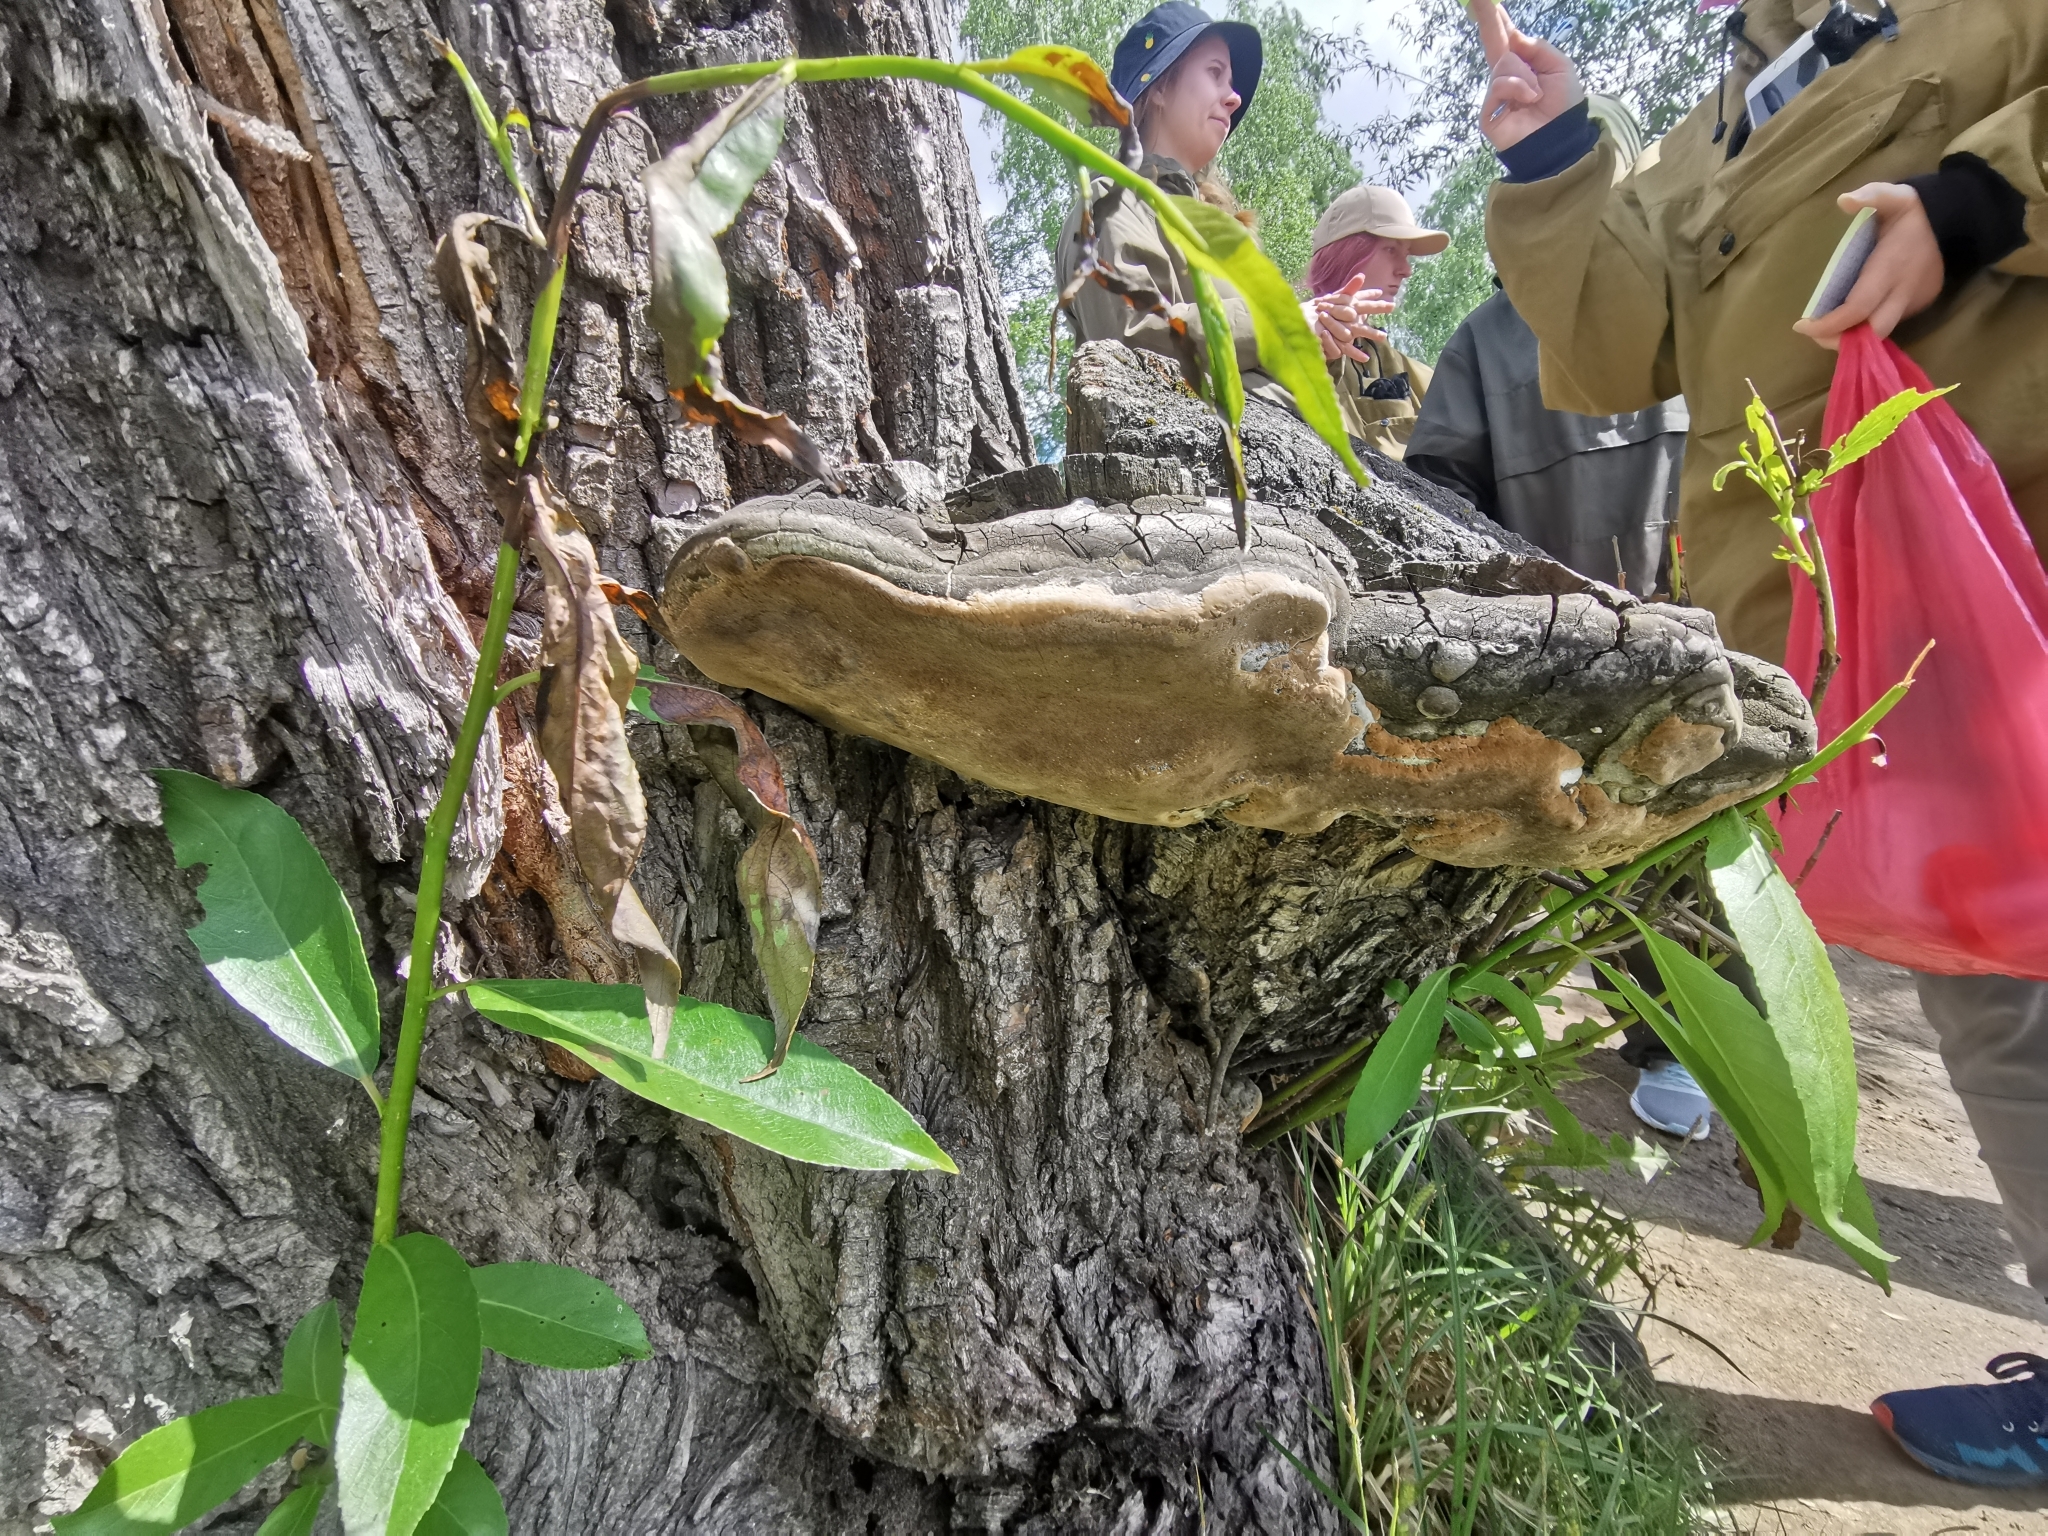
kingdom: Fungi
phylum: Basidiomycota
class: Agaricomycetes
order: Hymenochaetales
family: Hymenochaetaceae
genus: Phellinus
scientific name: Phellinus igniarius
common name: Willow bracket
